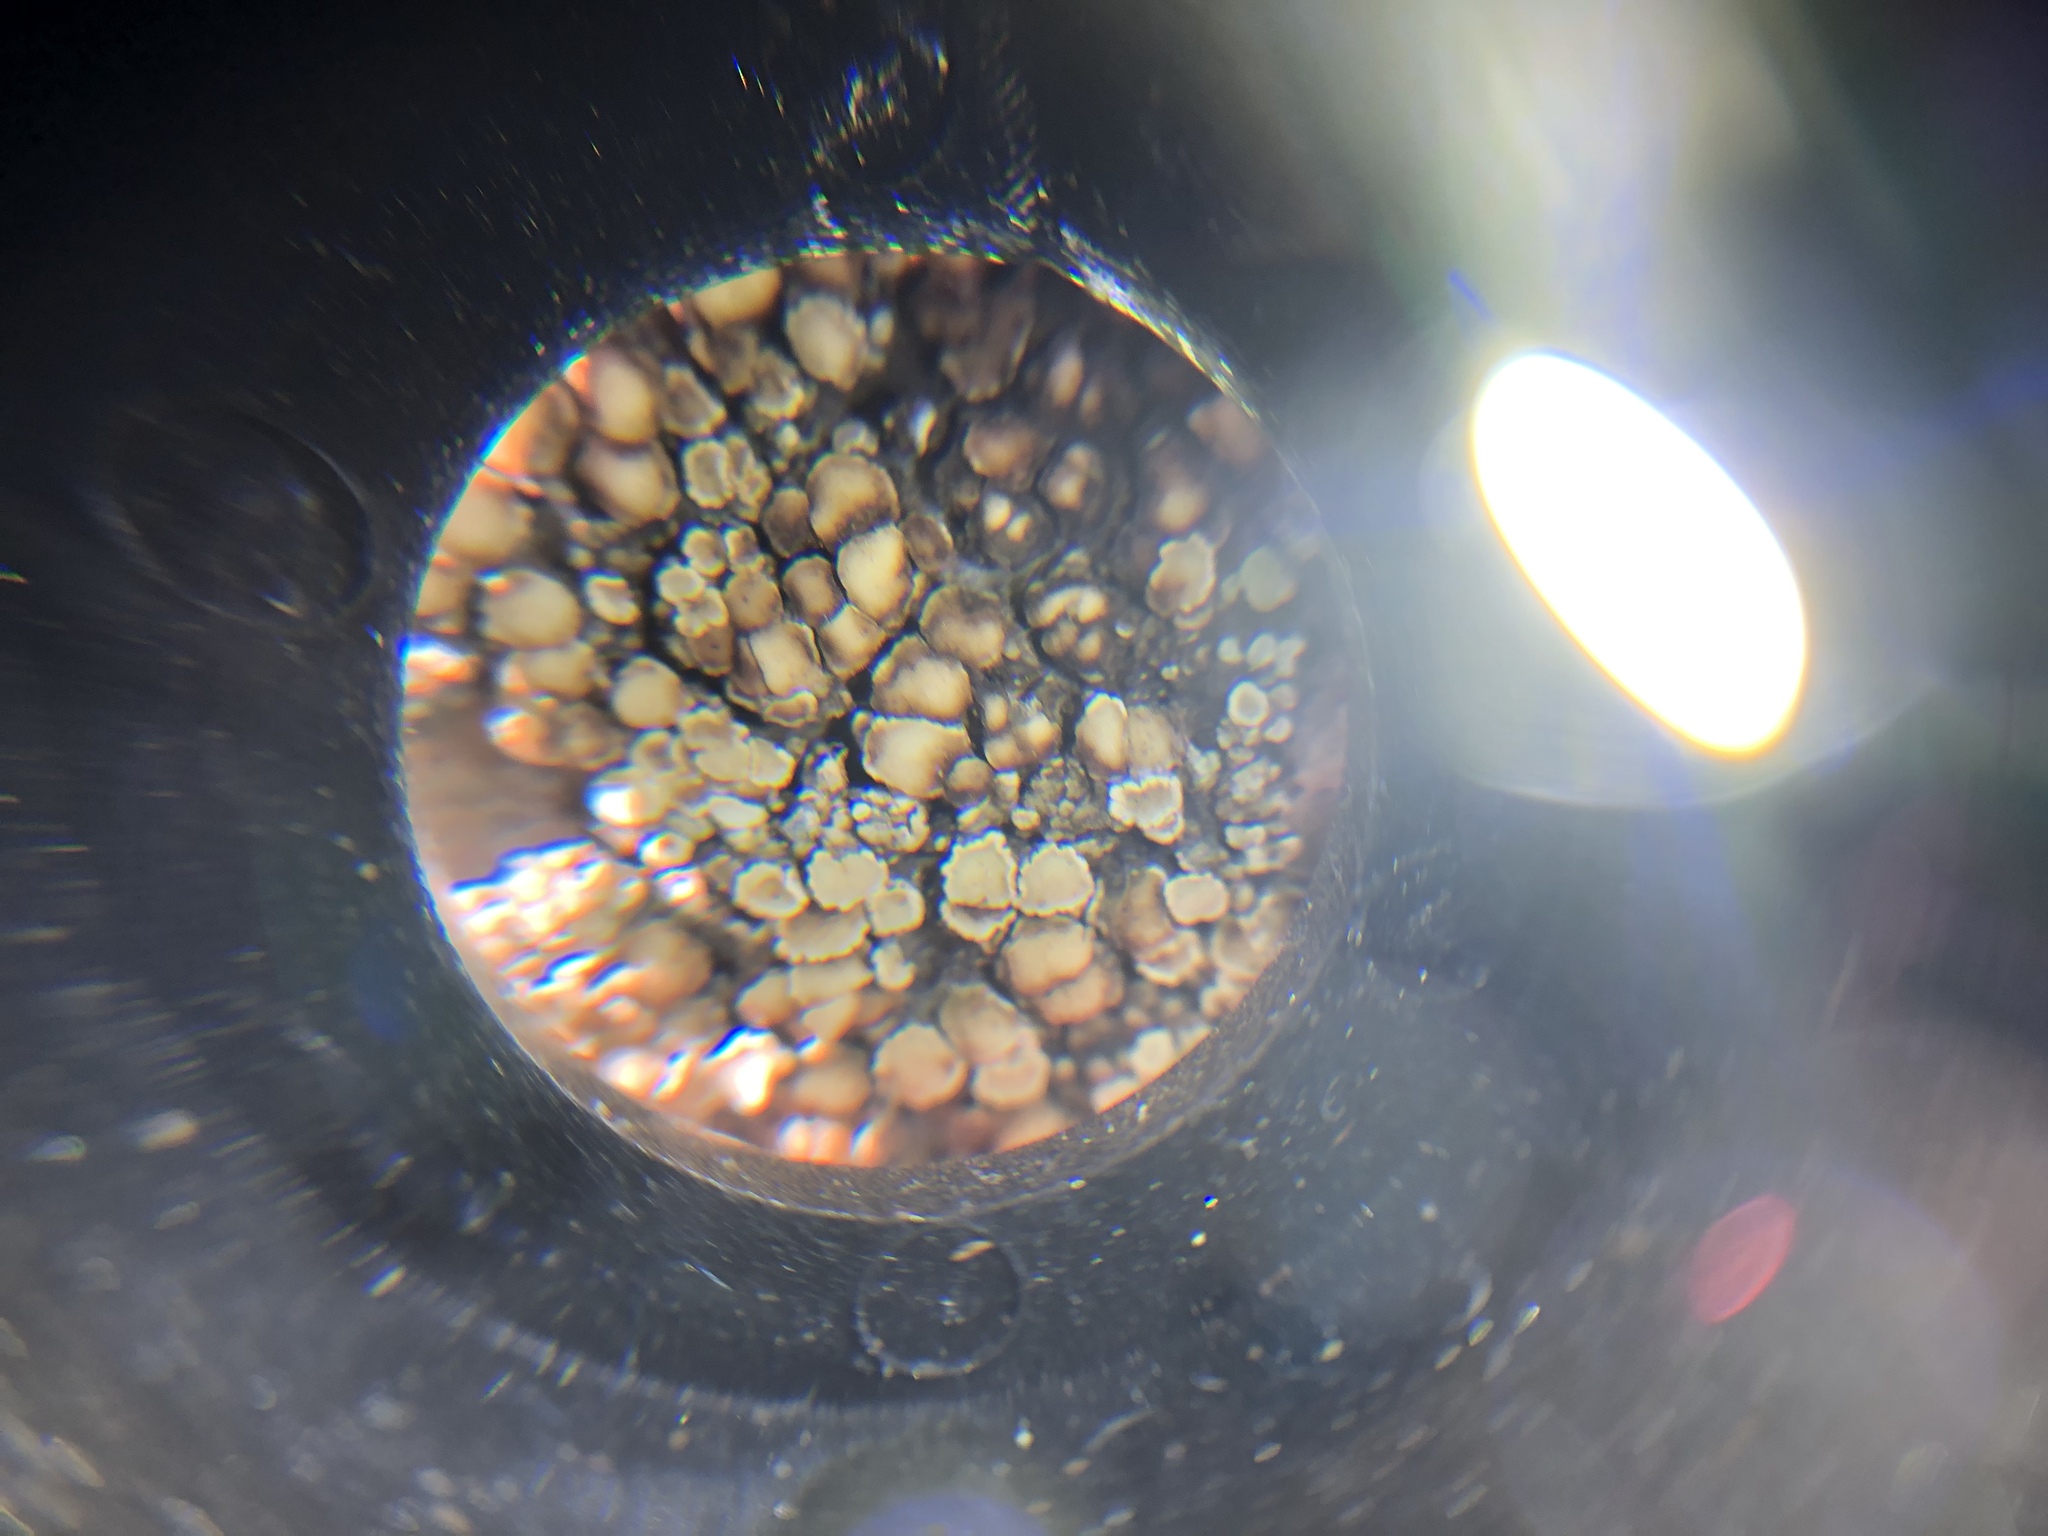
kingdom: Fungi
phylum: Ascomycota
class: Lecanoromycetes
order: Lecanorales
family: Lecanoraceae
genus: Protoparmeliopsis
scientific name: Protoparmeliopsis muralis
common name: Stonewall rim lichen
